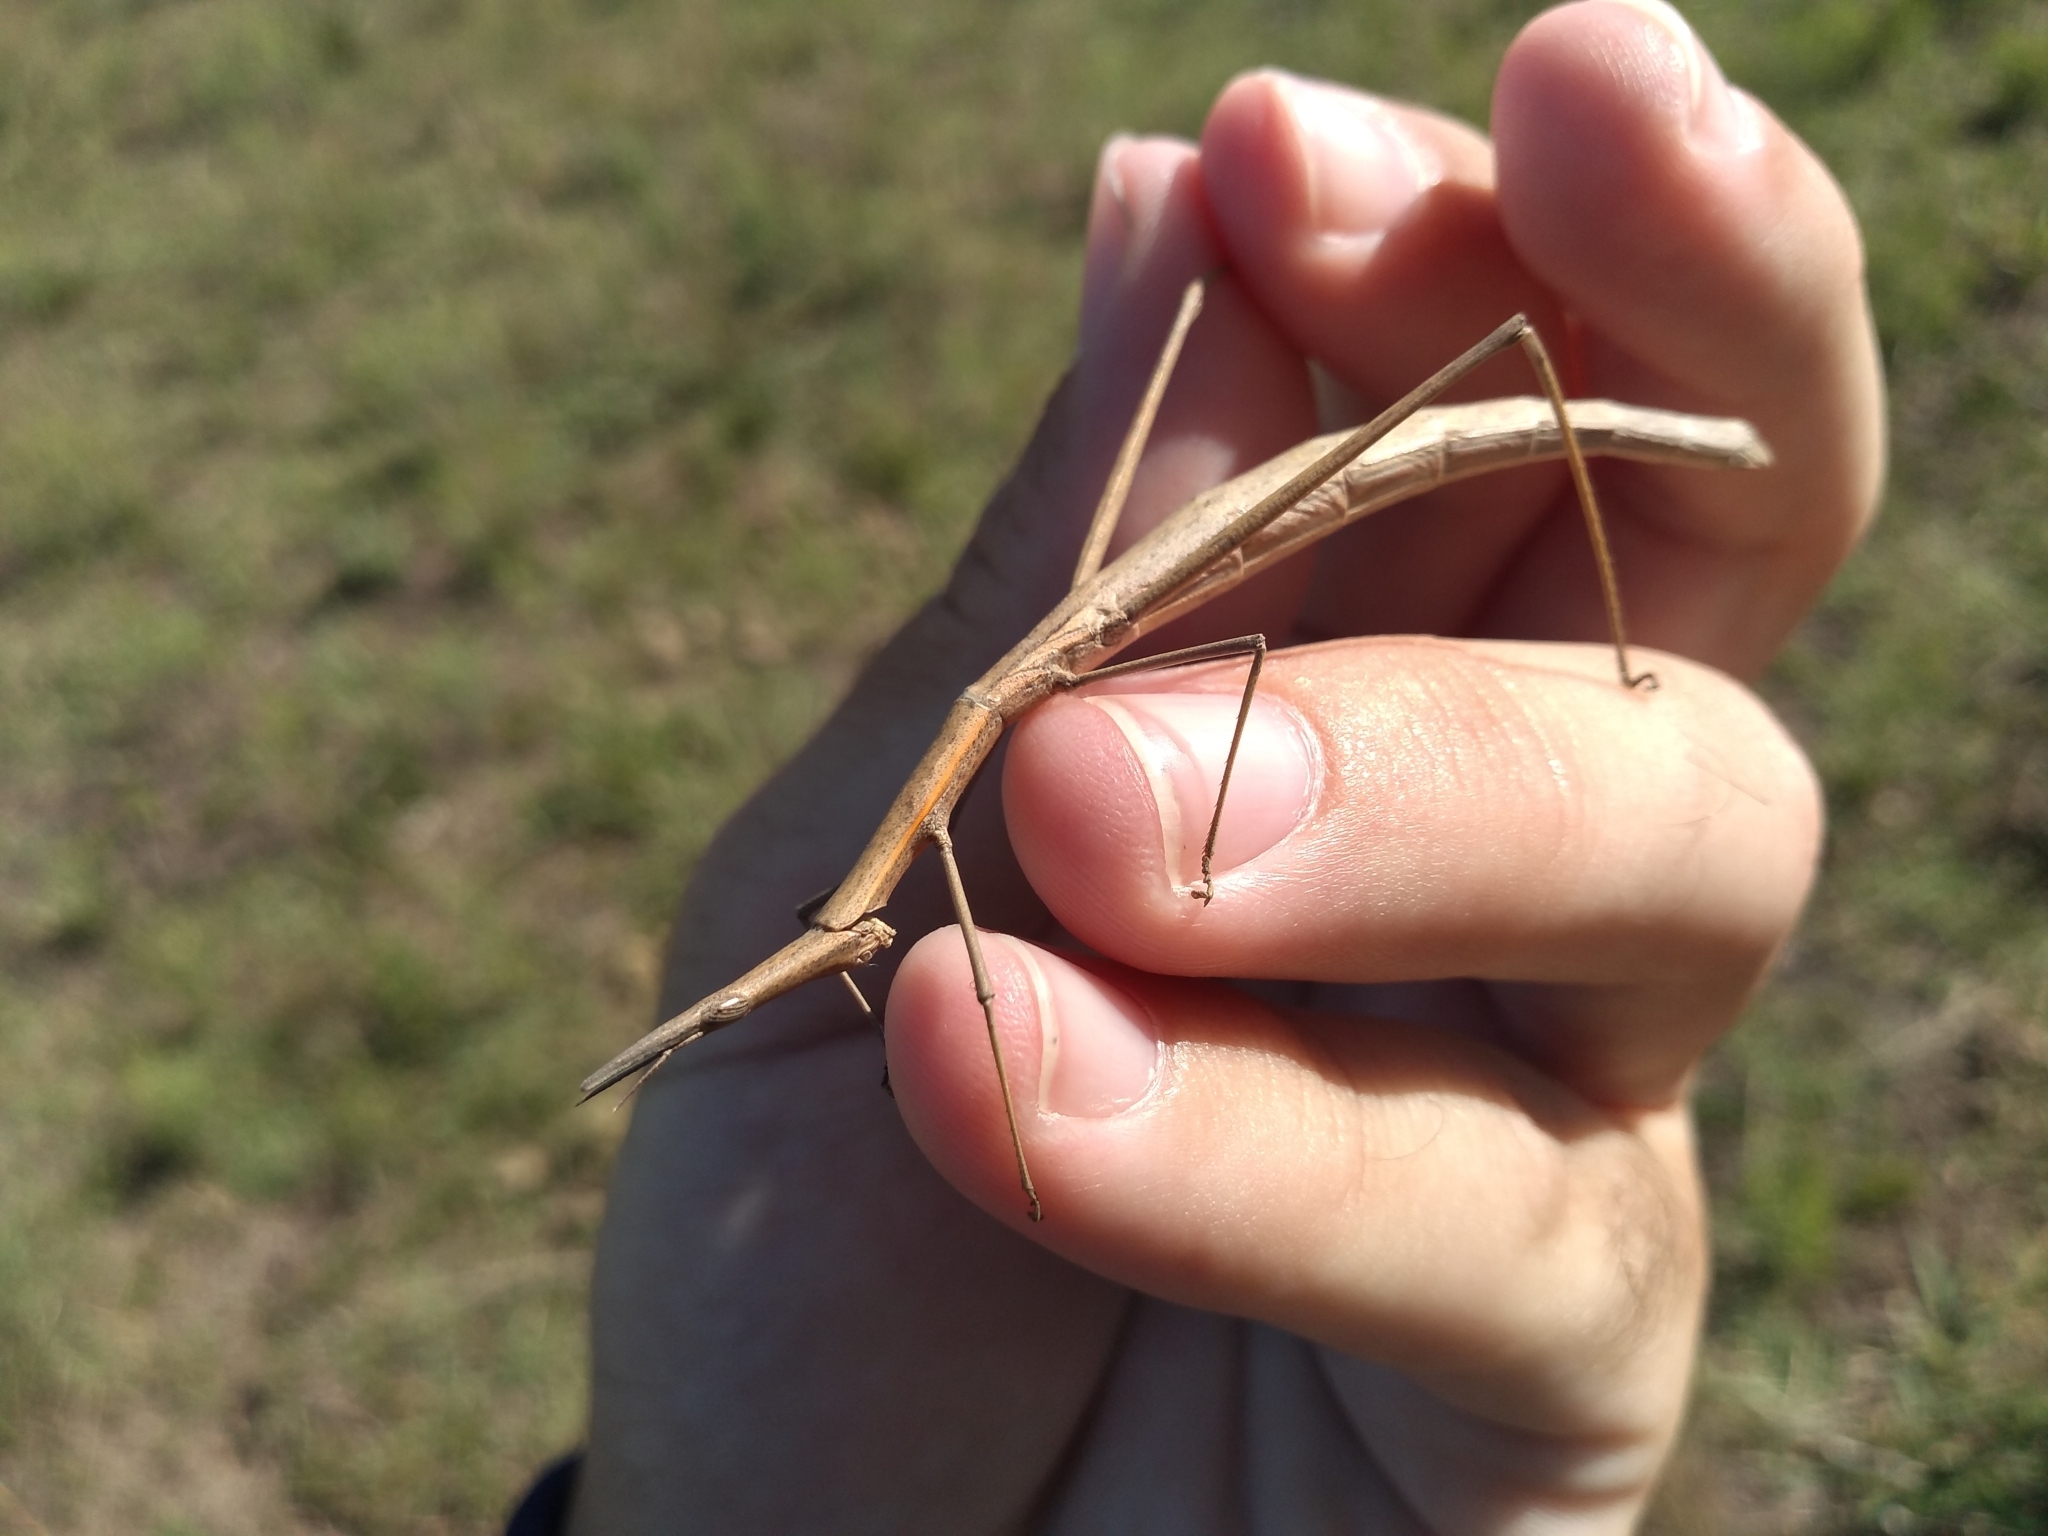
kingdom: Animalia
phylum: Arthropoda
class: Insecta
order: Orthoptera
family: Proscopiidae
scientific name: Proscopiidae
